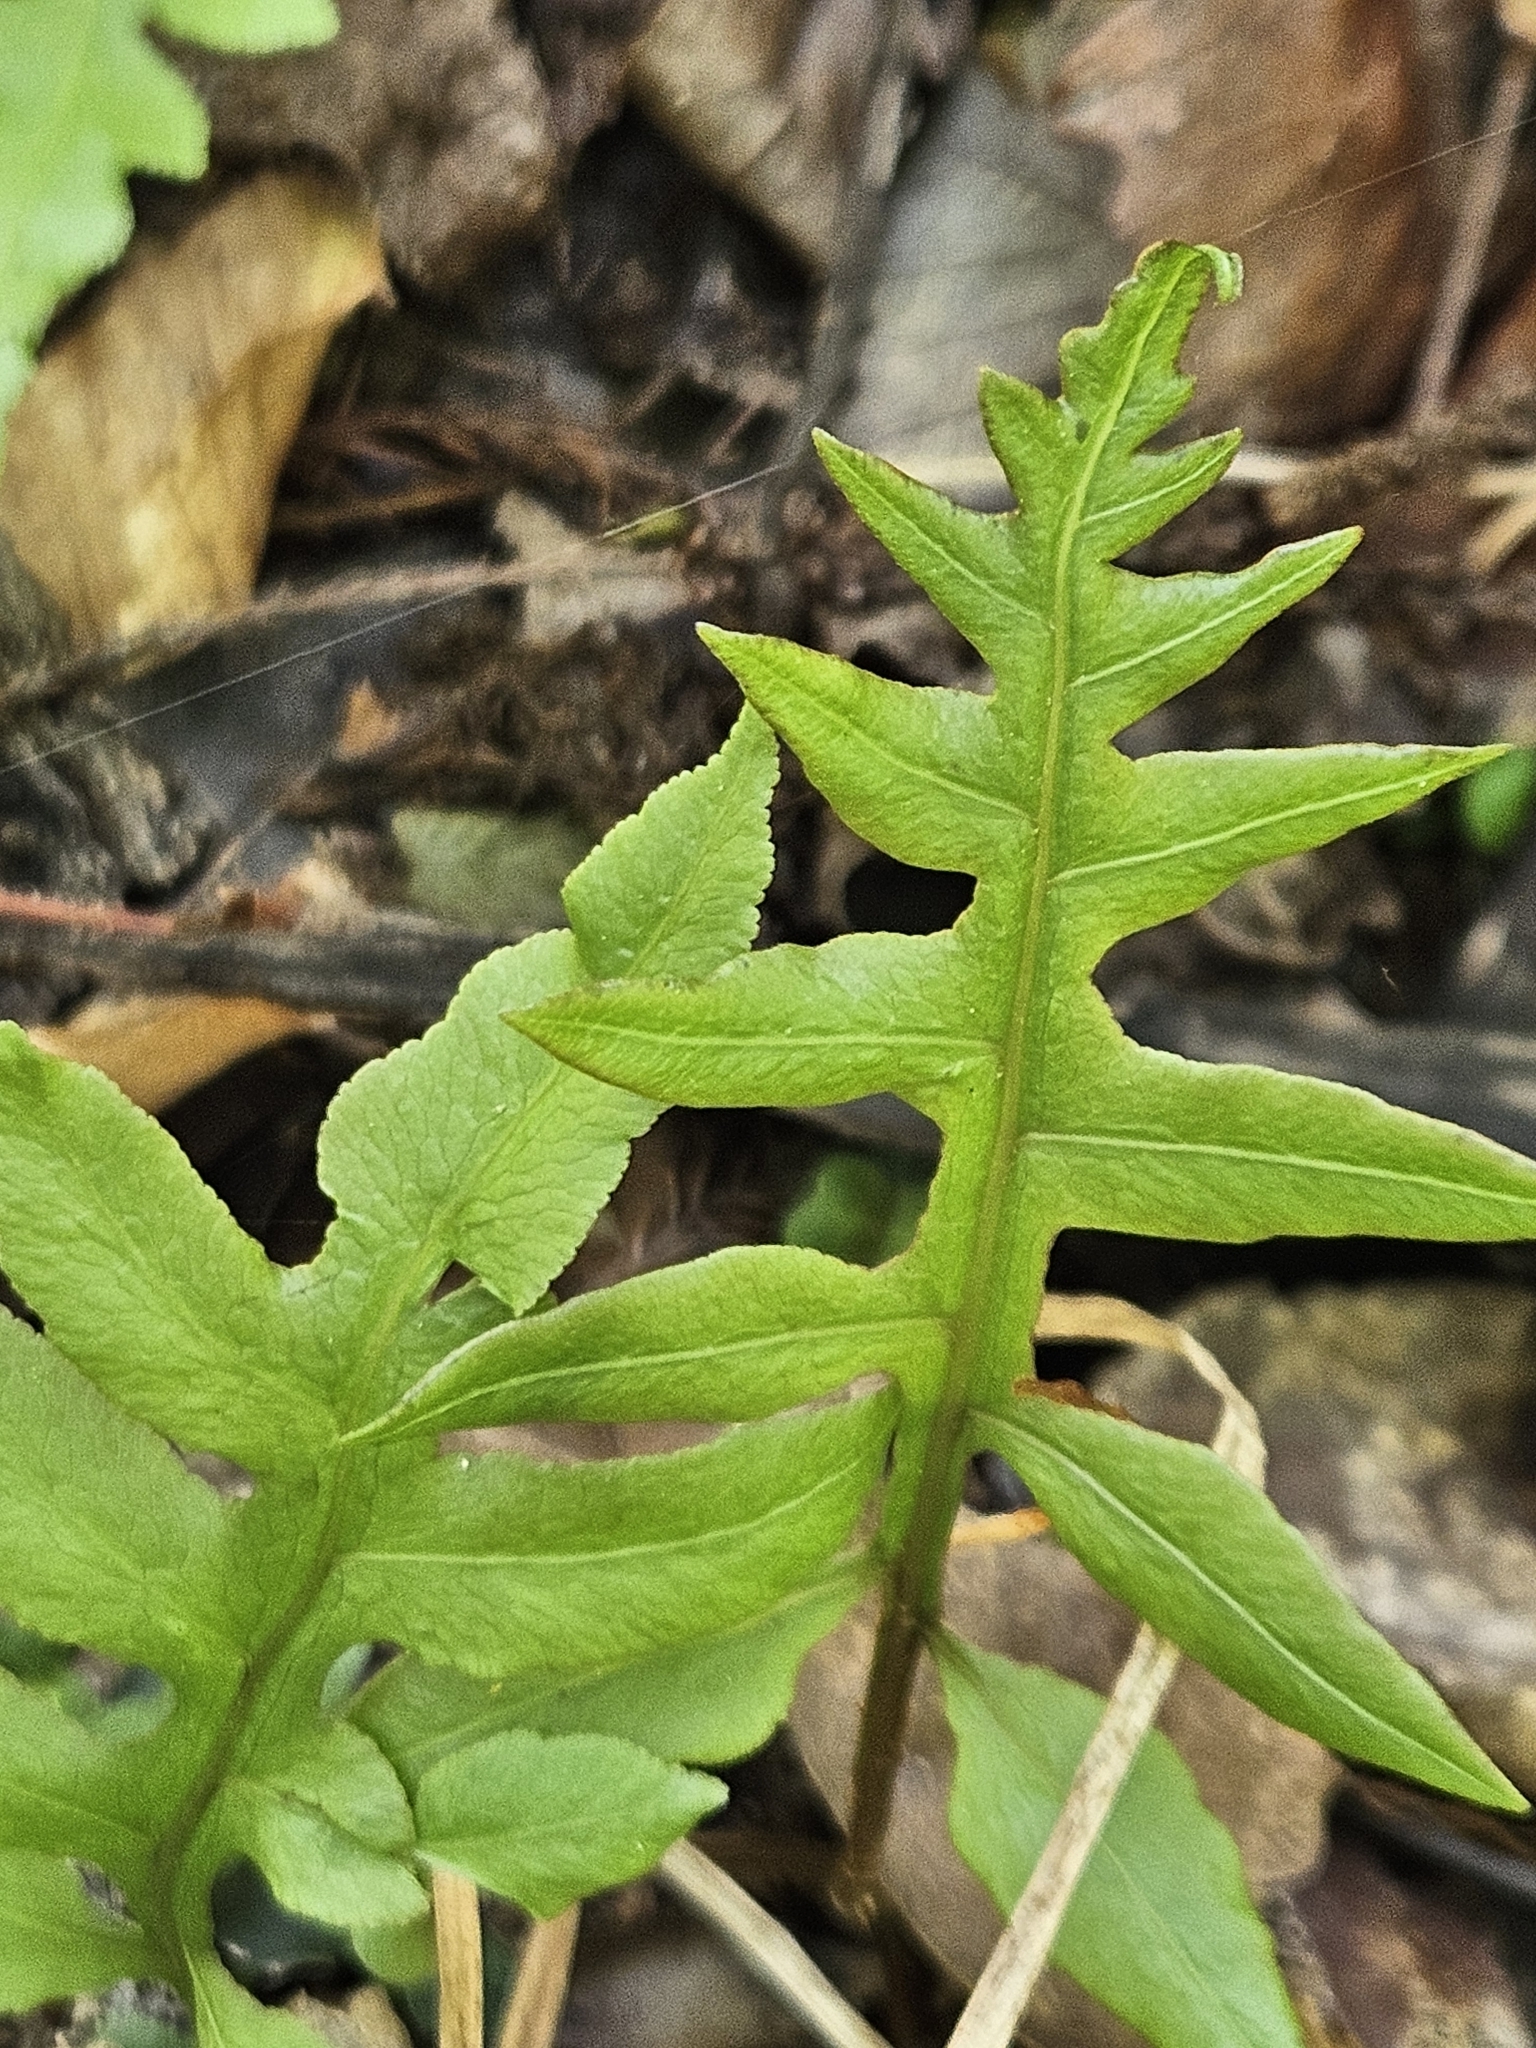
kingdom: Plantae
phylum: Tracheophyta
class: Polypodiopsida
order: Polypodiales
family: Blechnaceae
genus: Lorinseria
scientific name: Lorinseria areolata
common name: Dwarf chain fern
